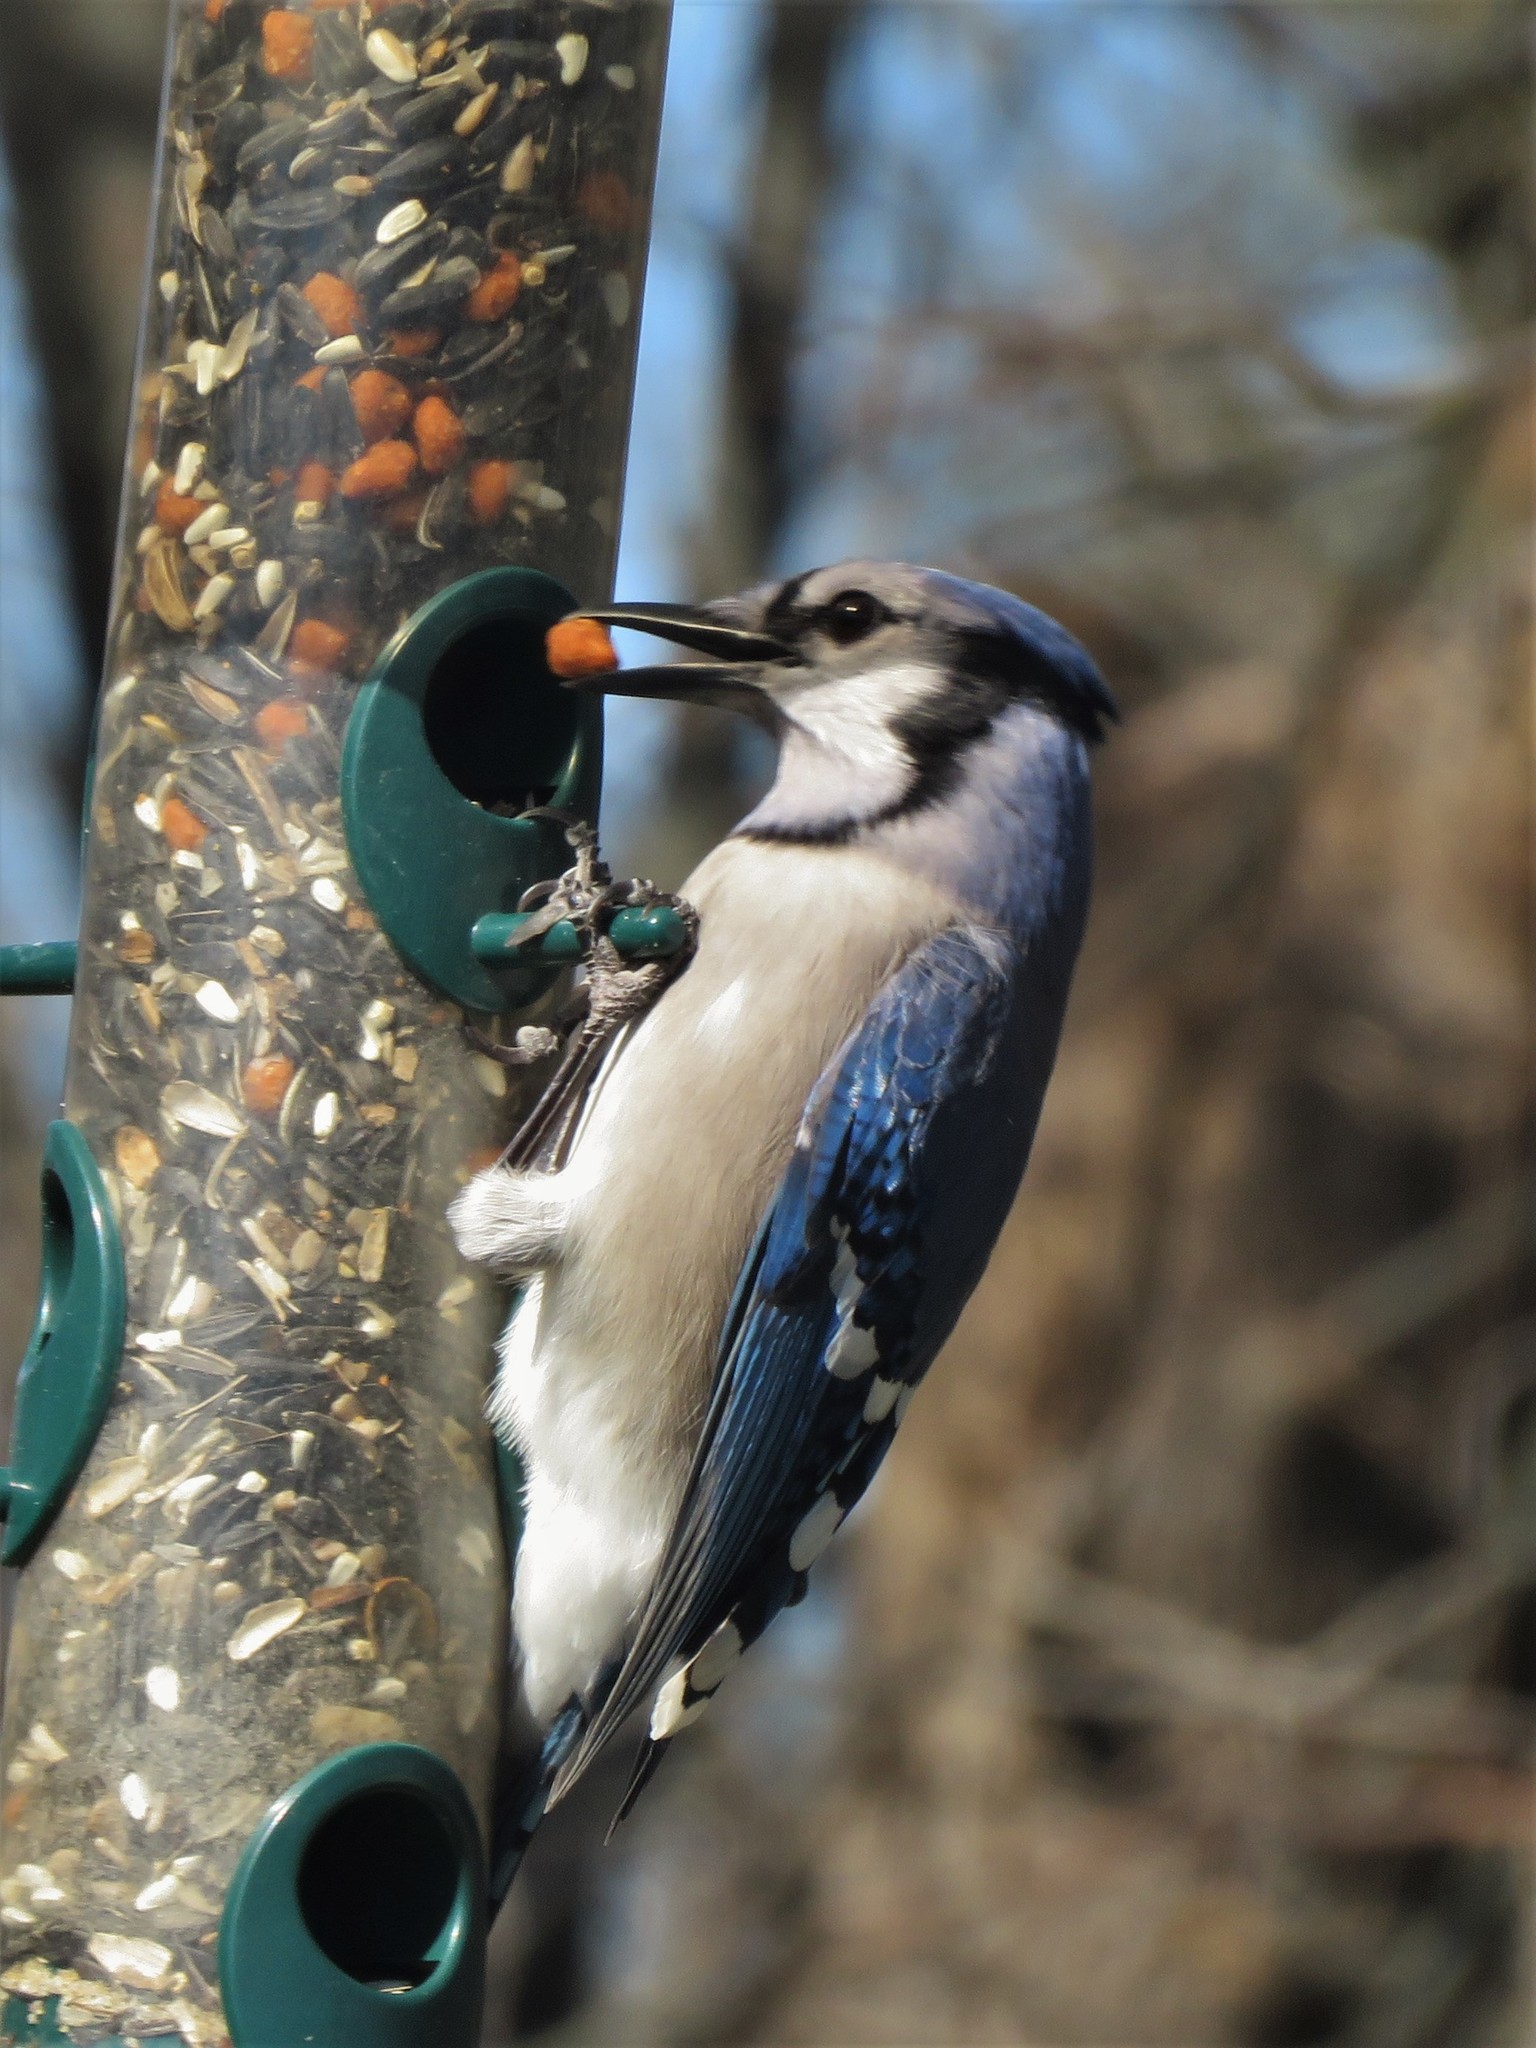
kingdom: Animalia
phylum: Chordata
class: Aves
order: Passeriformes
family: Corvidae
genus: Cyanocitta
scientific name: Cyanocitta cristata
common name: Blue jay
